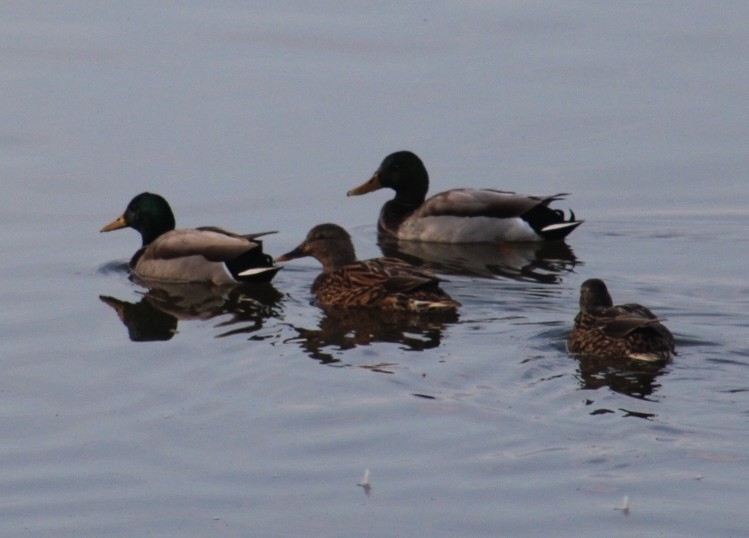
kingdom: Animalia
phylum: Chordata
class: Aves
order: Anseriformes
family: Anatidae
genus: Anas
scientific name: Anas platyrhynchos
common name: Mallard
